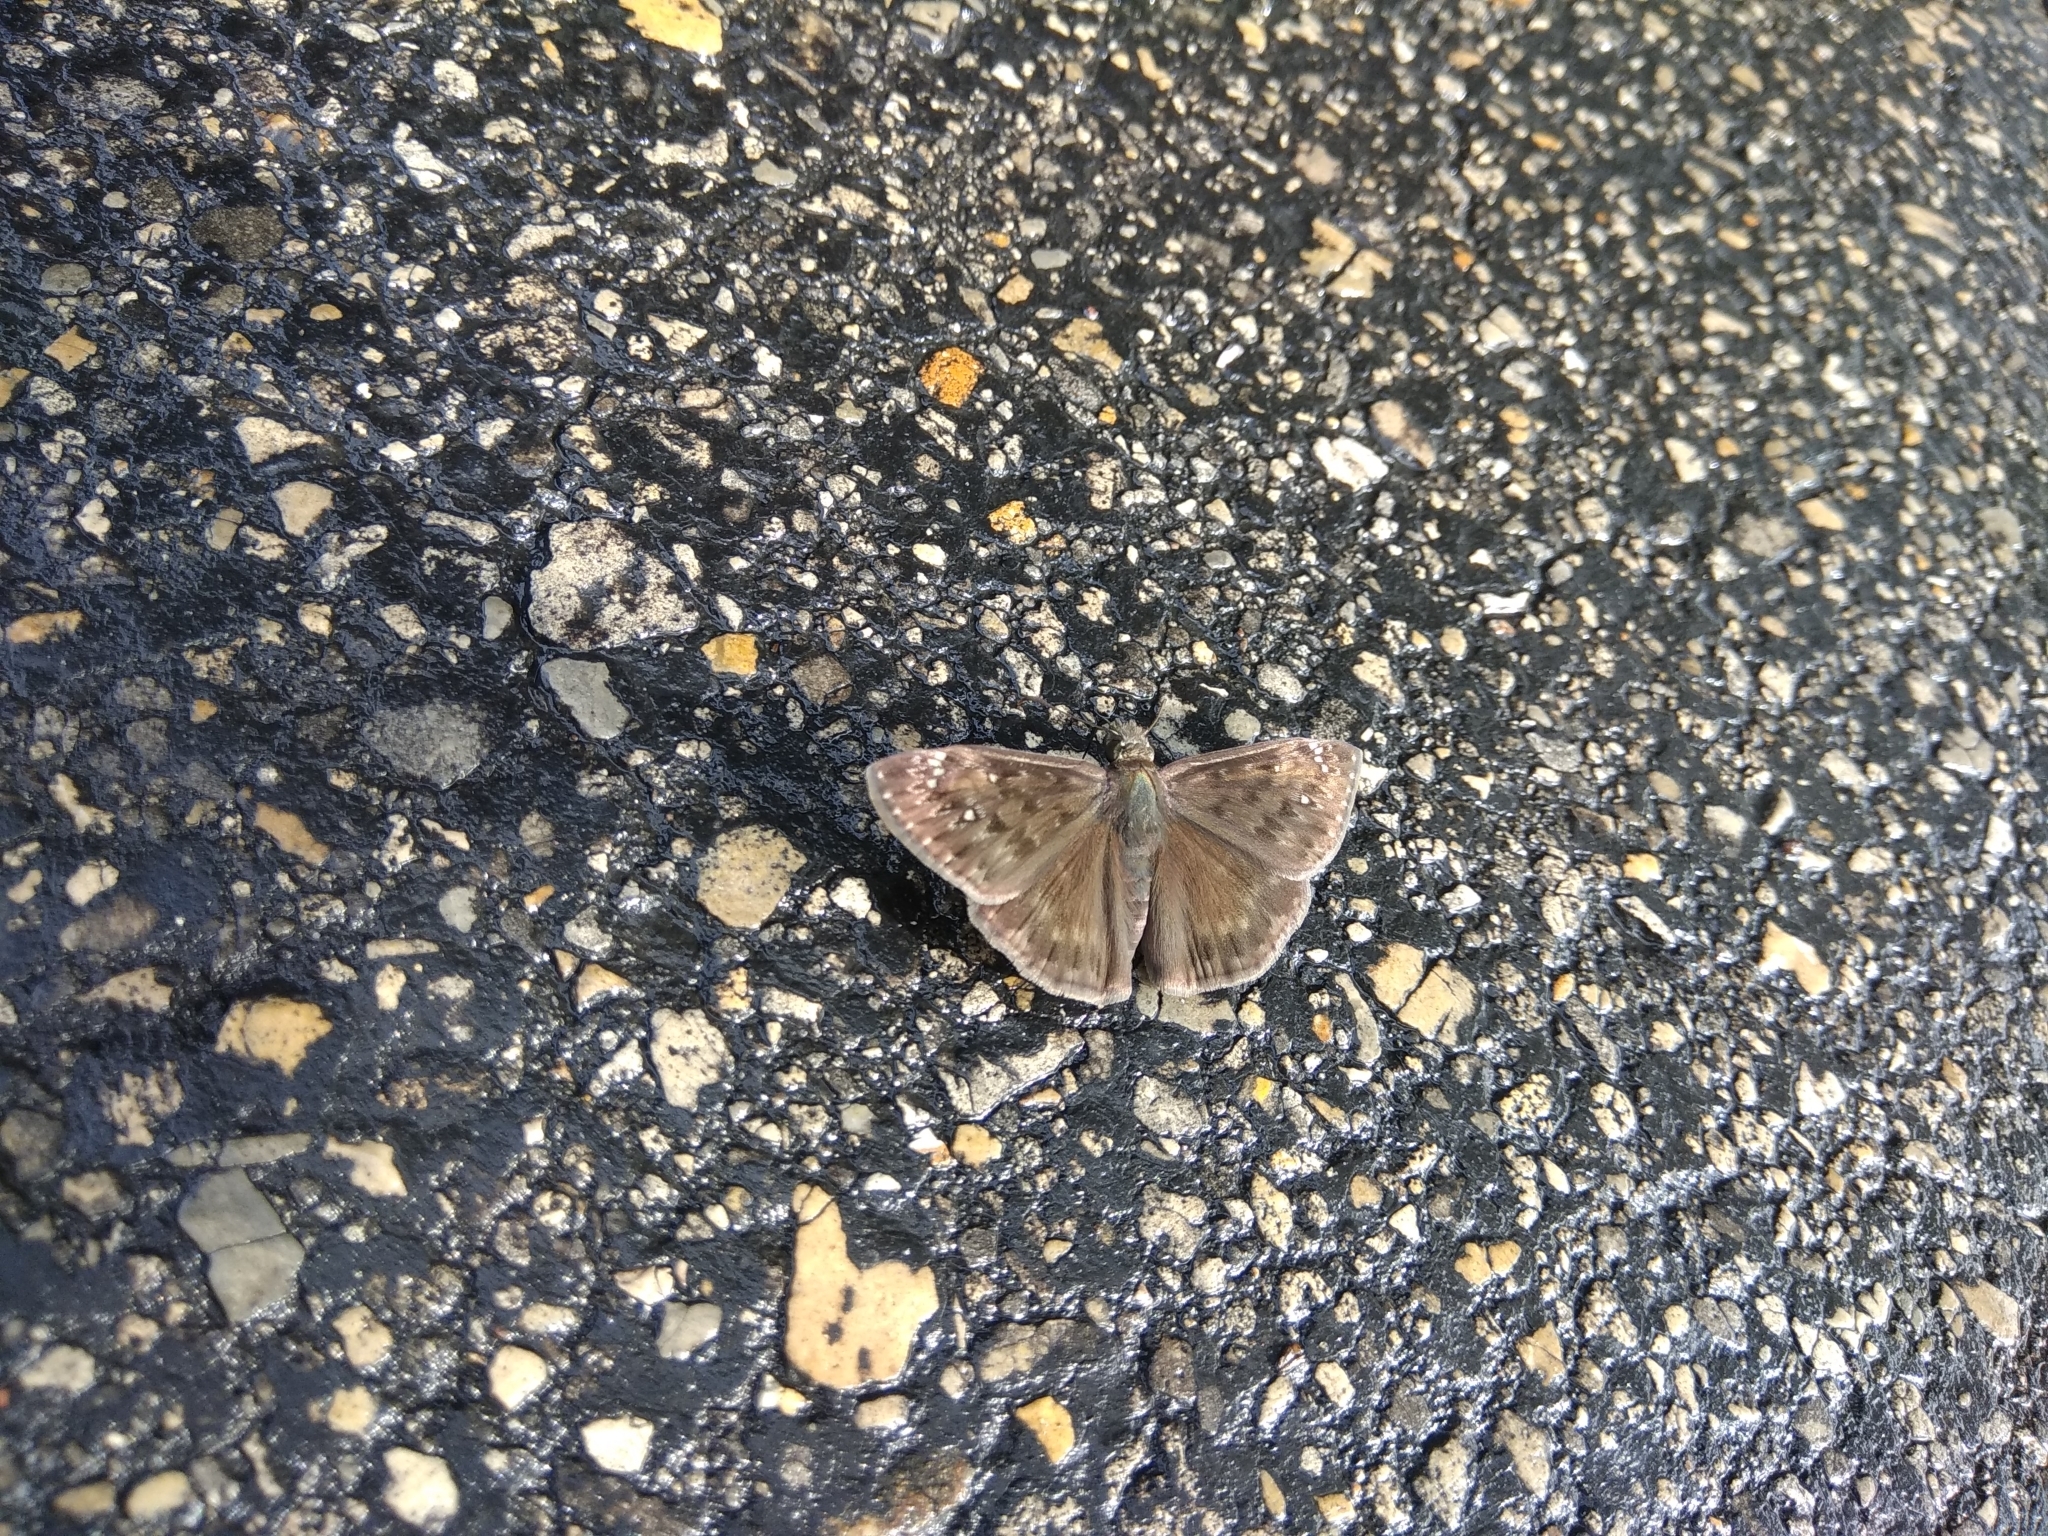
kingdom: Animalia
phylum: Arthropoda
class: Insecta
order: Lepidoptera
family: Hesperiidae
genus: Erynnis
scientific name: Erynnis horatius
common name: Horace's duskywing
